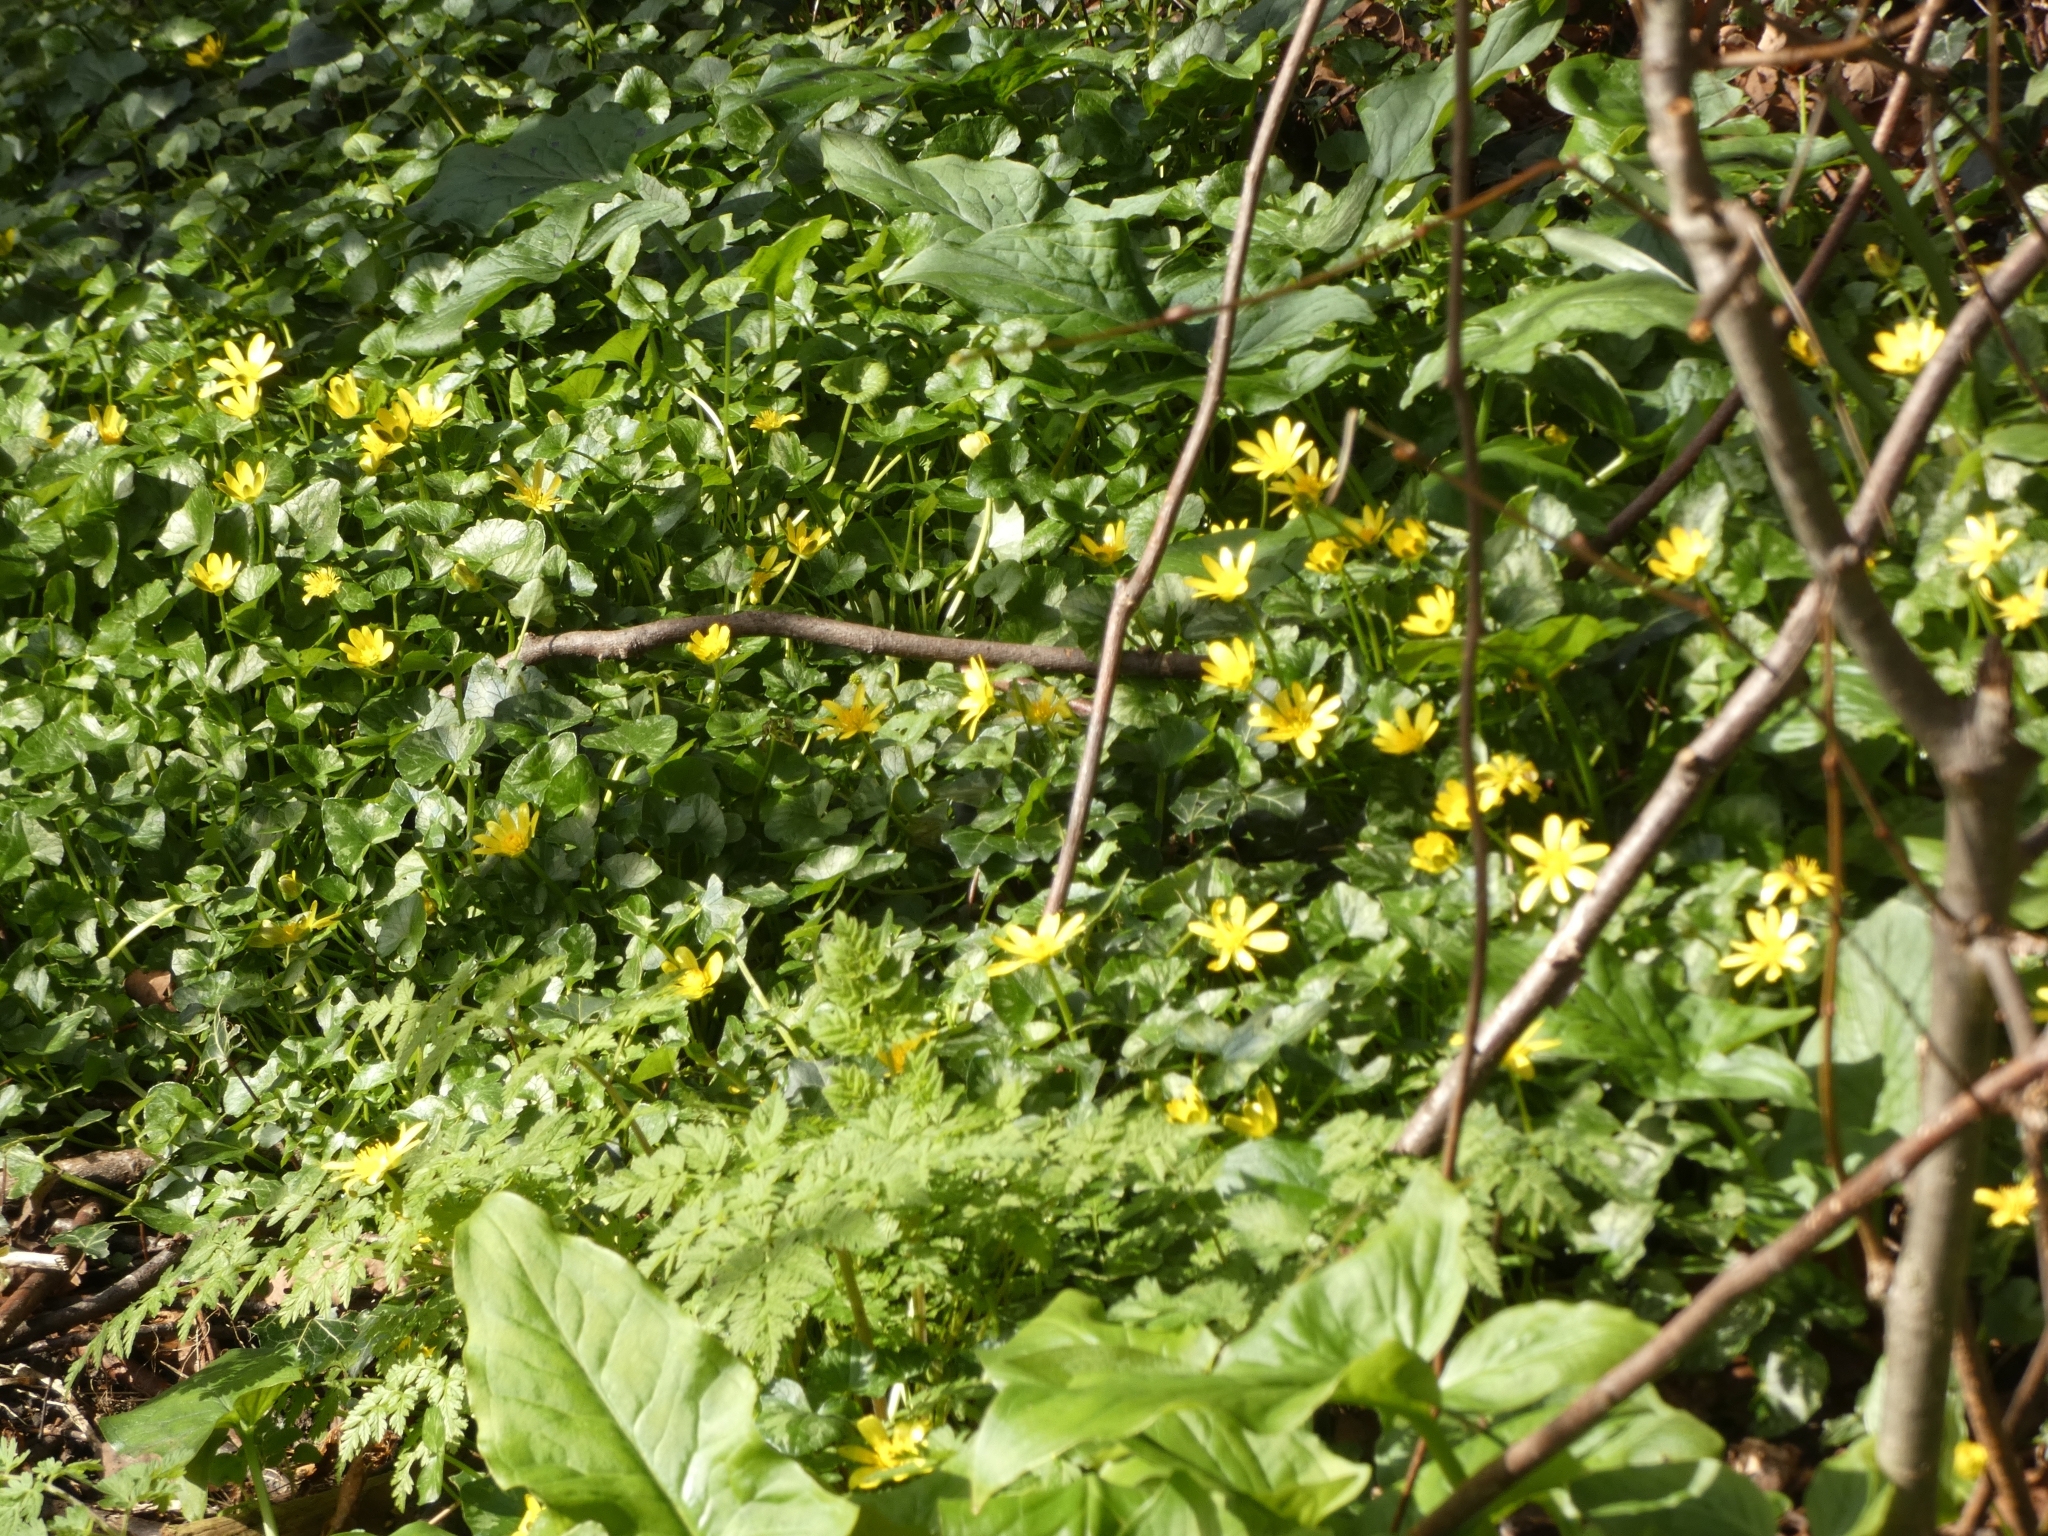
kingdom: Plantae
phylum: Tracheophyta
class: Magnoliopsida
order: Ranunculales
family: Ranunculaceae
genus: Ficaria
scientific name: Ficaria verna
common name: Lesser celandine
